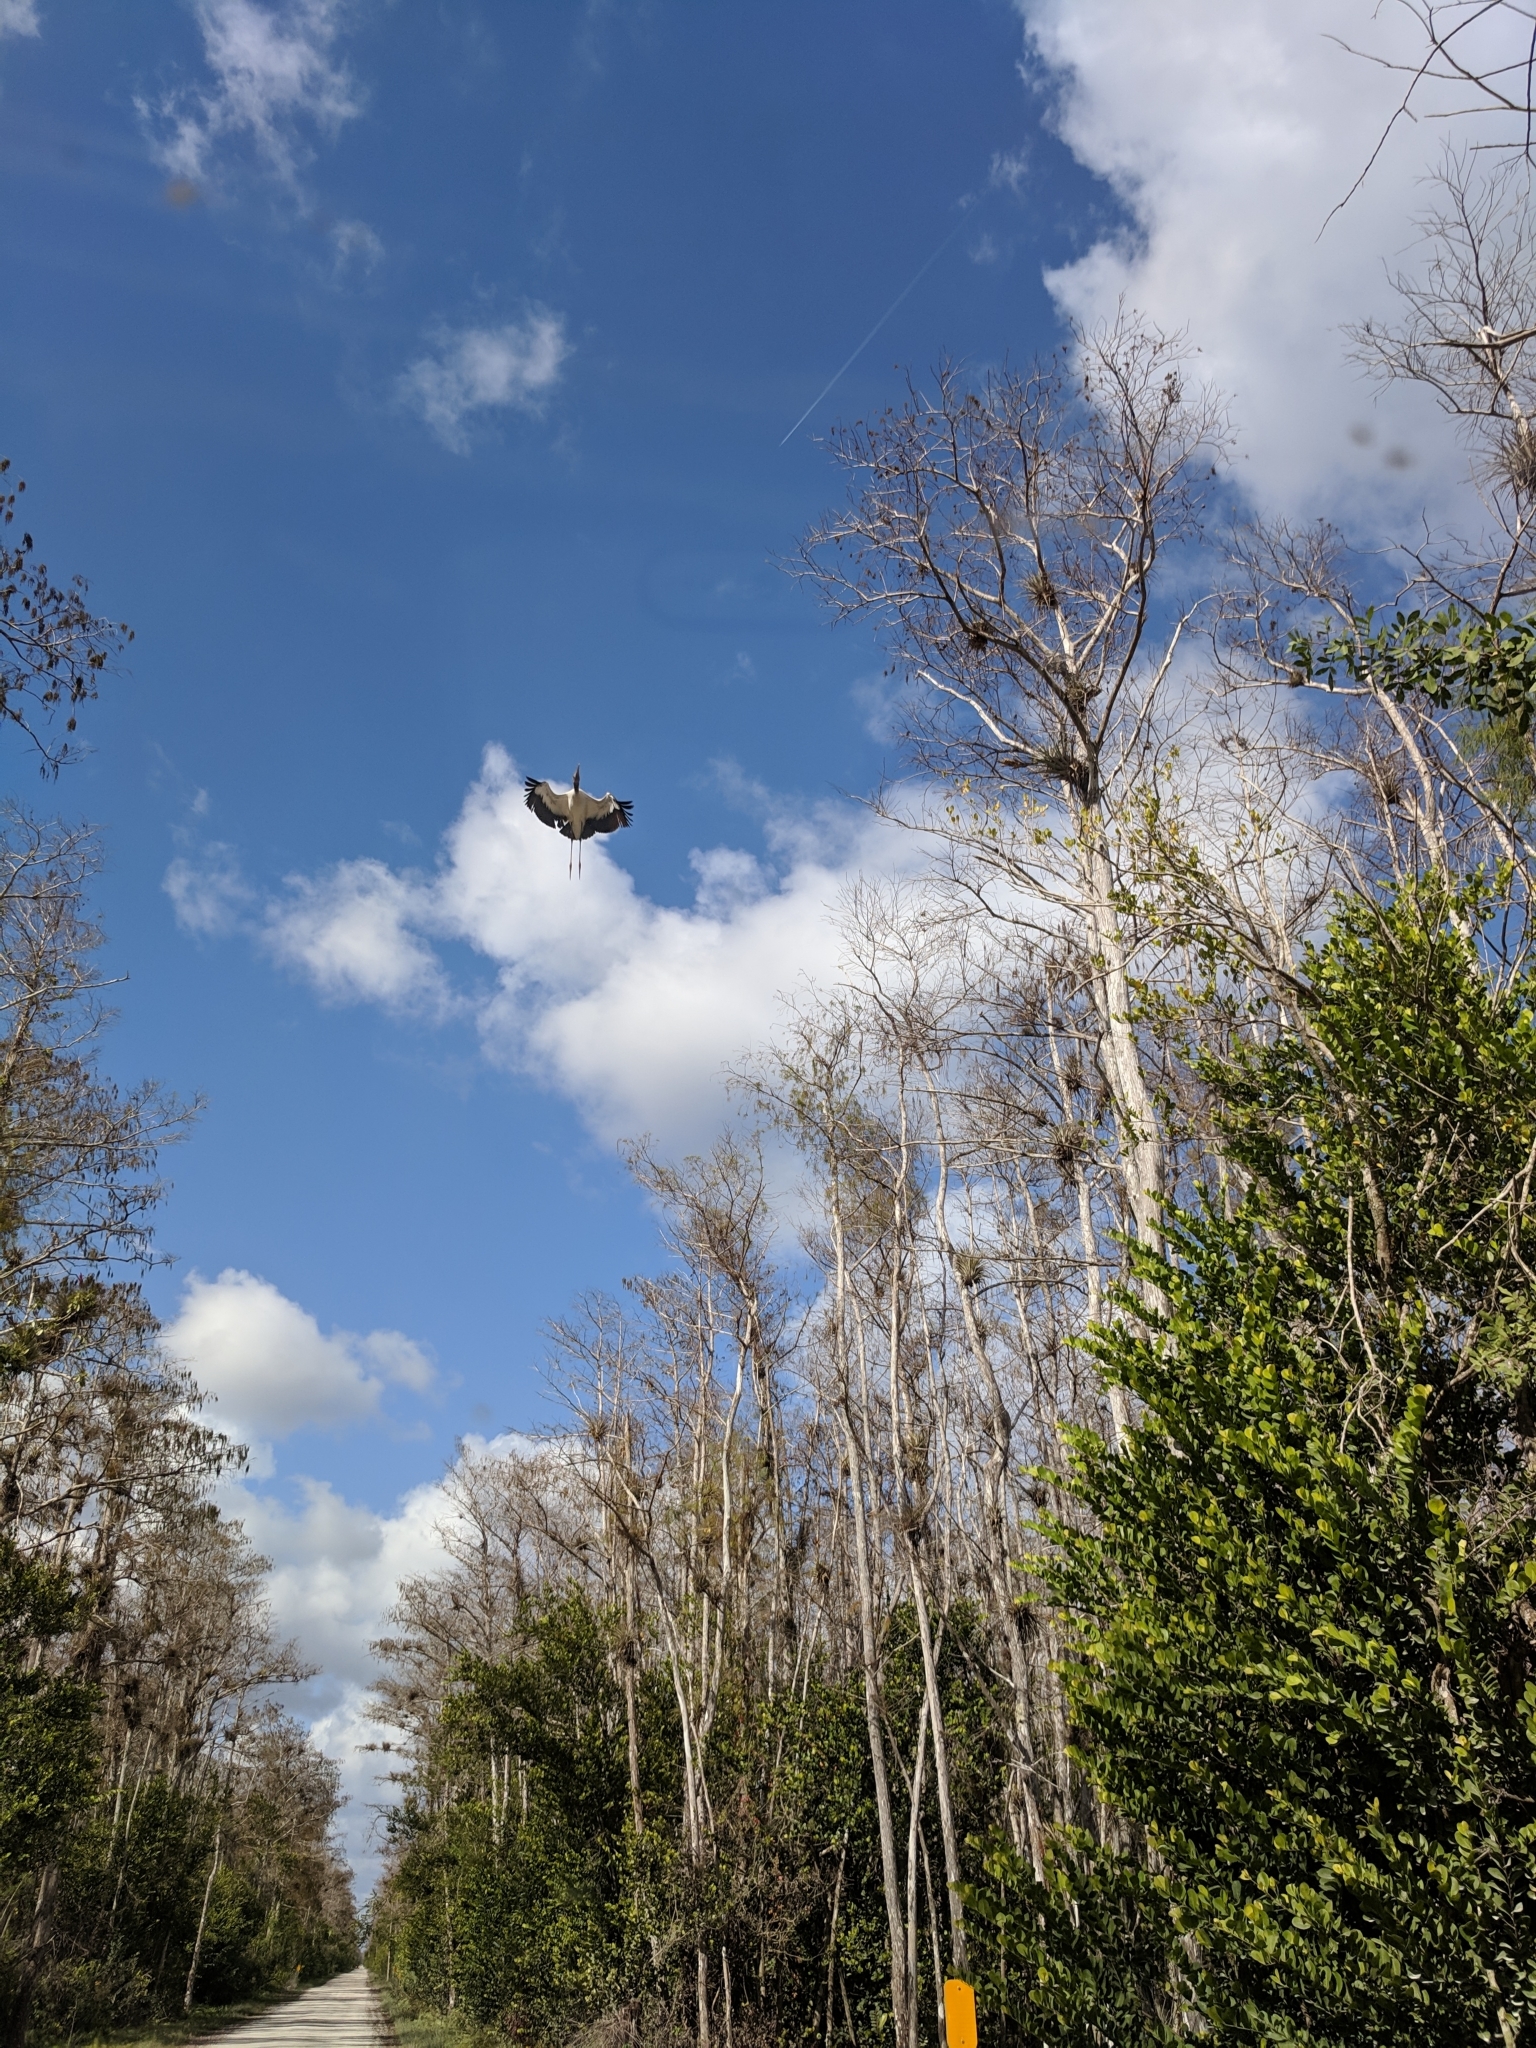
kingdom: Animalia
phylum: Chordata
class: Aves
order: Ciconiiformes
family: Ciconiidae
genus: Mycteria
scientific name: Mycteria americana
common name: Wood stork
